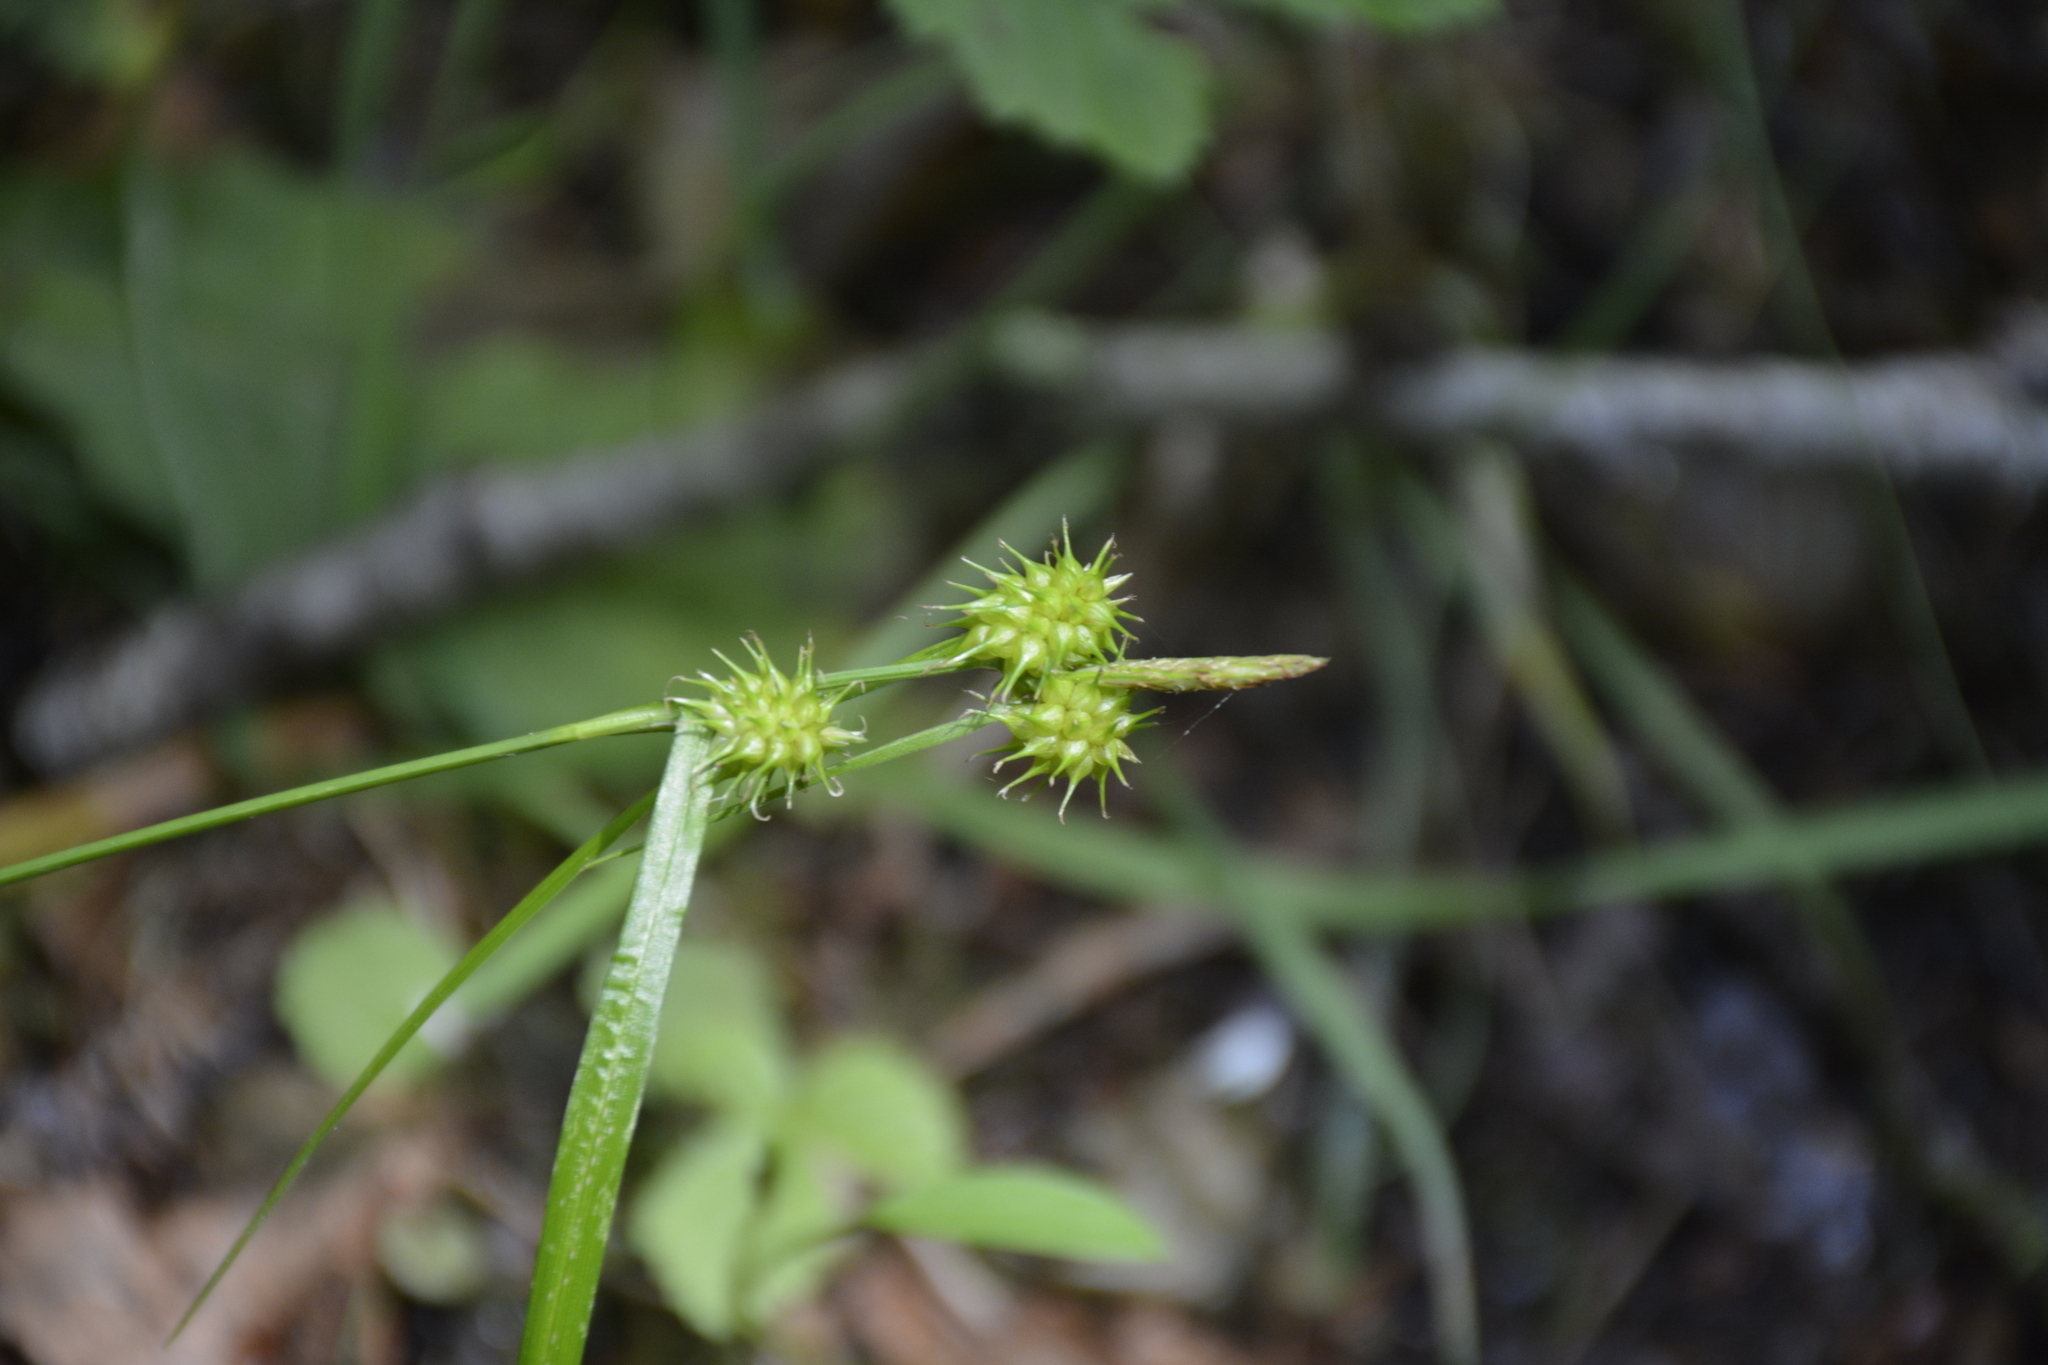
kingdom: Plantae
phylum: Tracheophyta
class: Liliopsida
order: Poales
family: Cyperaceae
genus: Carex
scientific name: Carex flava
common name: Large yellow-sedge
